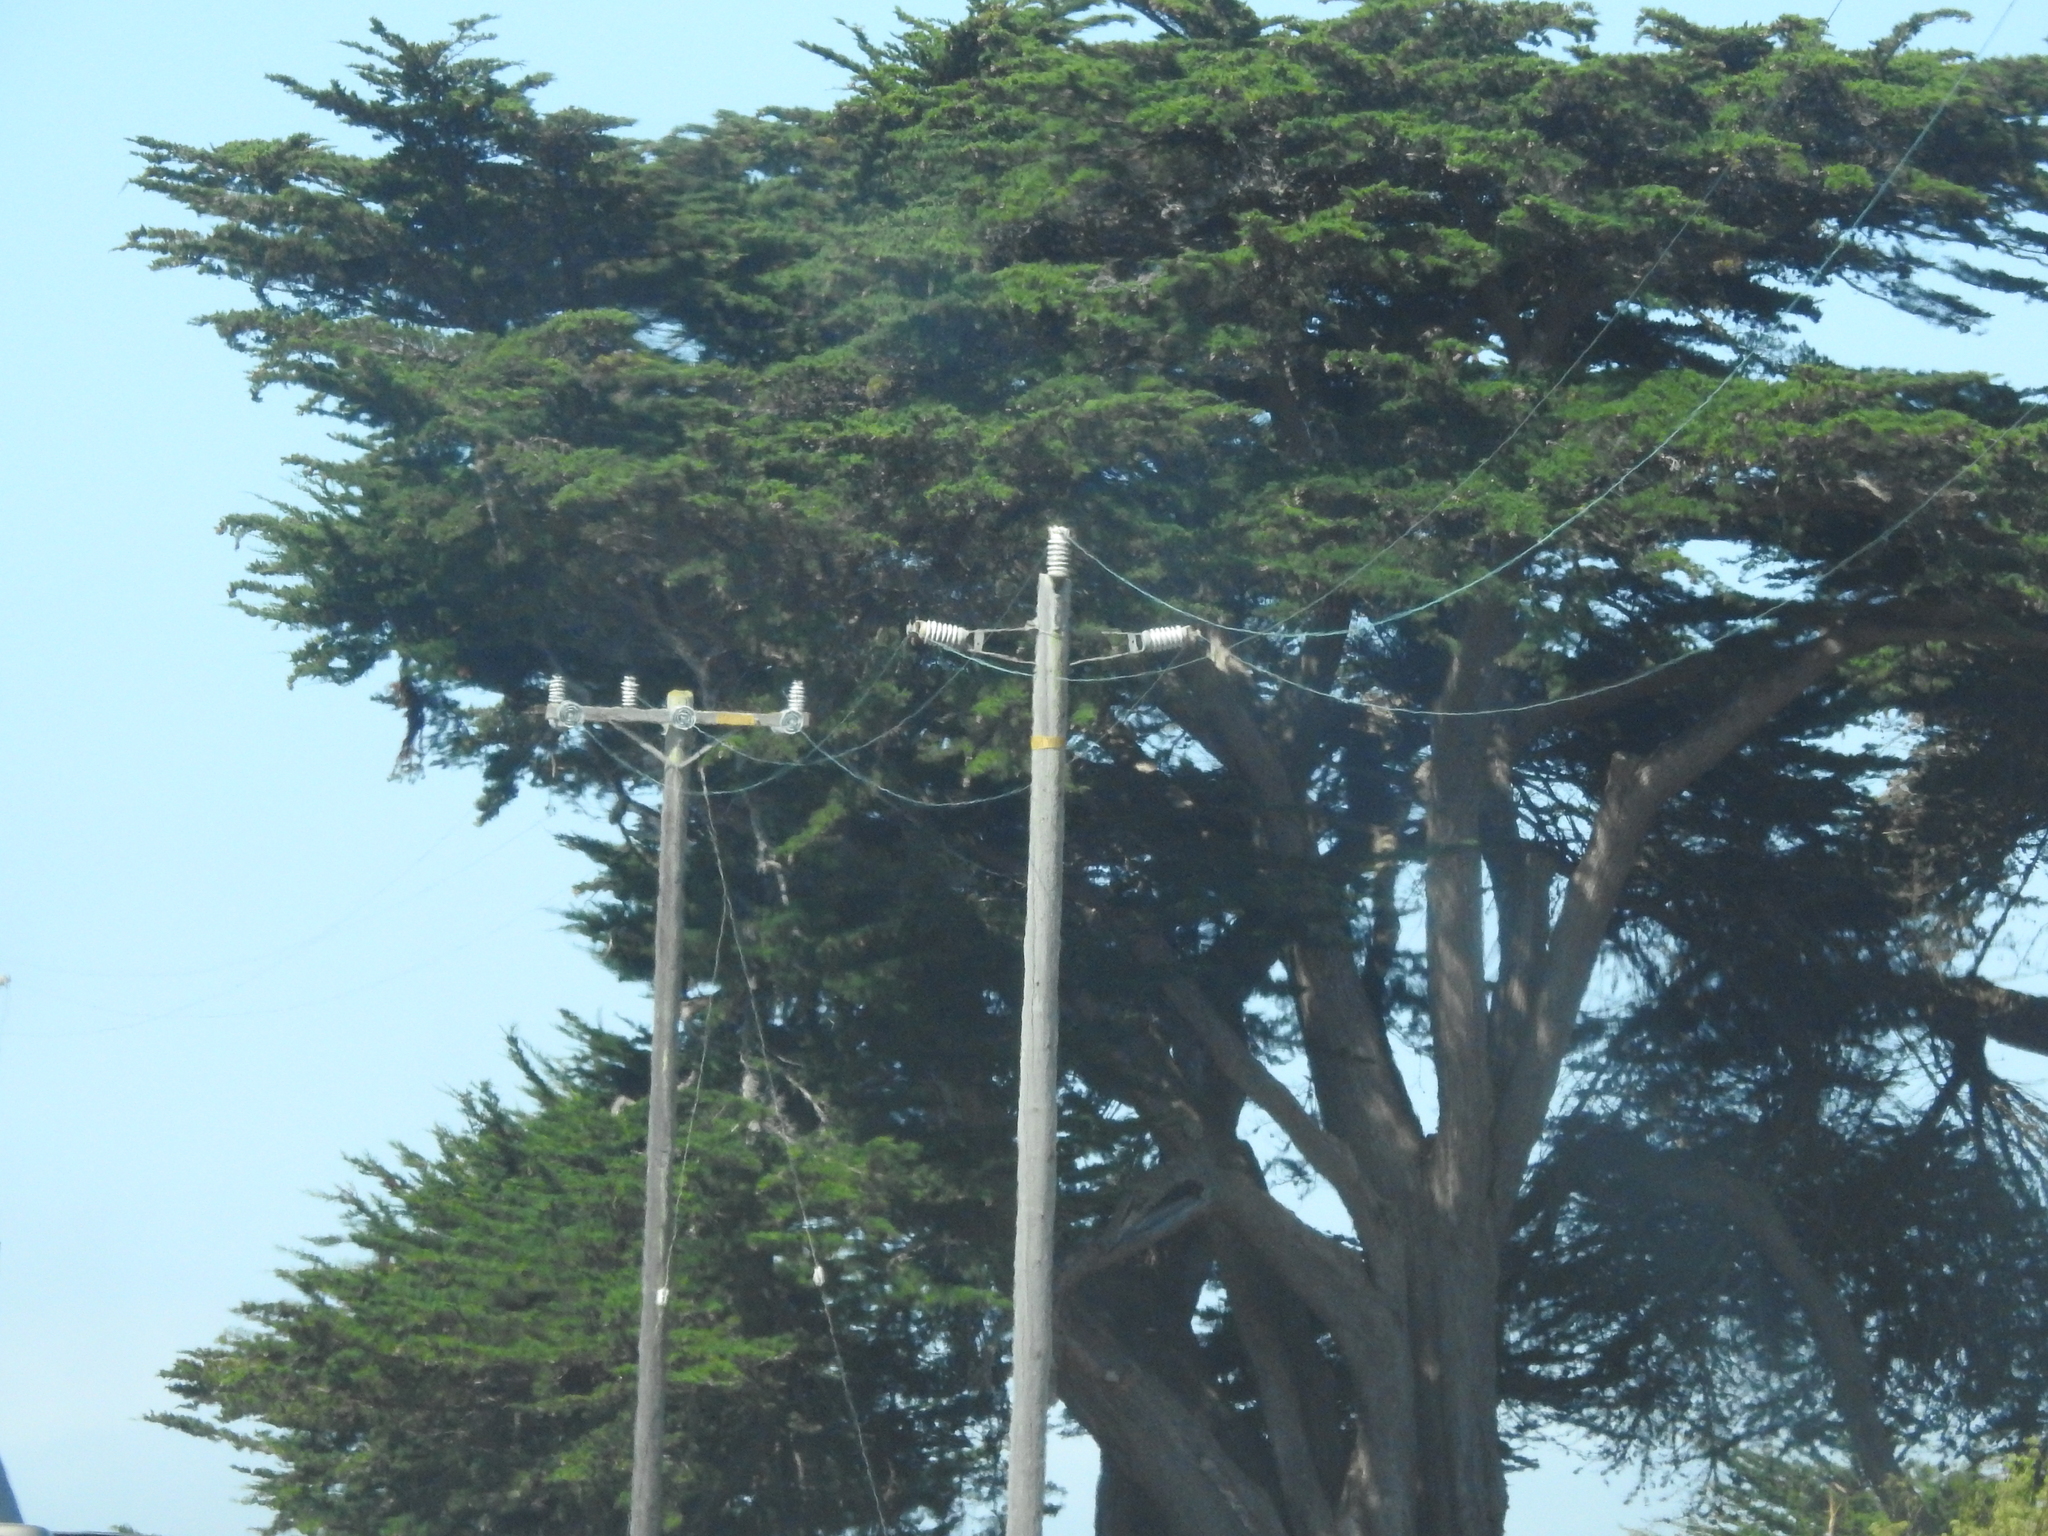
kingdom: Plantae
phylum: Tracheophyta
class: Pinopsida
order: Pinales
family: Cupressaceae
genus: Cupressus
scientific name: Cupressus macrocarpa
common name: Monterey cypress
